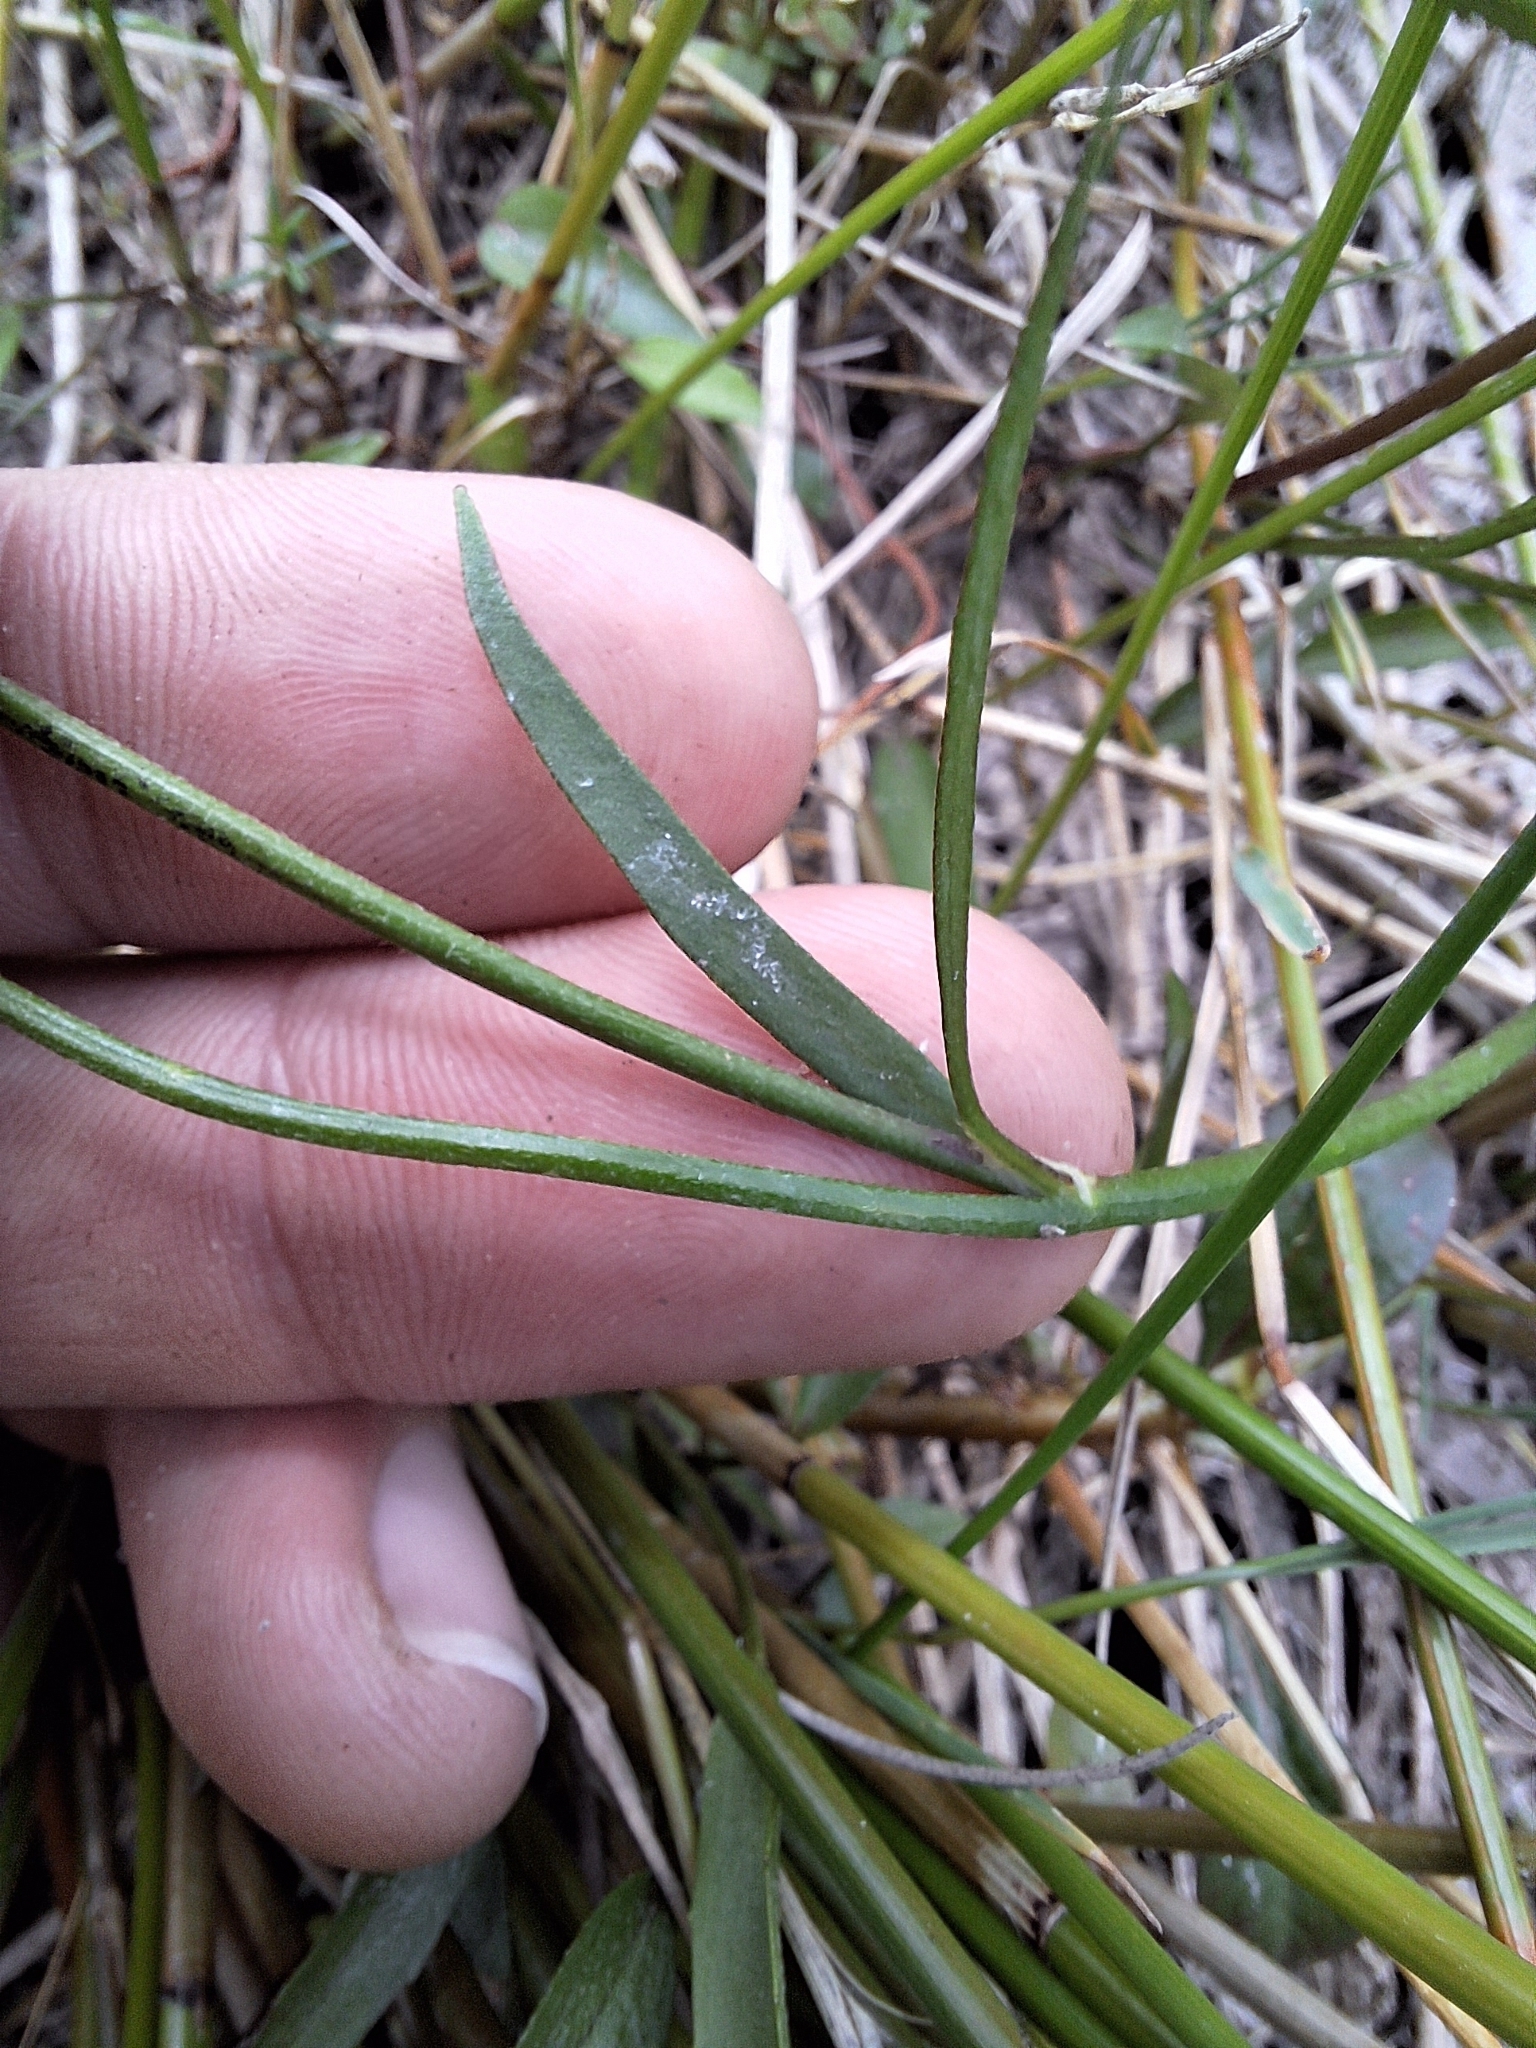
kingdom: Plantae
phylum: Tracheophyta
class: Magnoliopsida
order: Ranunculales
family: Ranunculaceae
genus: Ranunculus
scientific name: Ranunculus flammula
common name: Lesser spearwort
